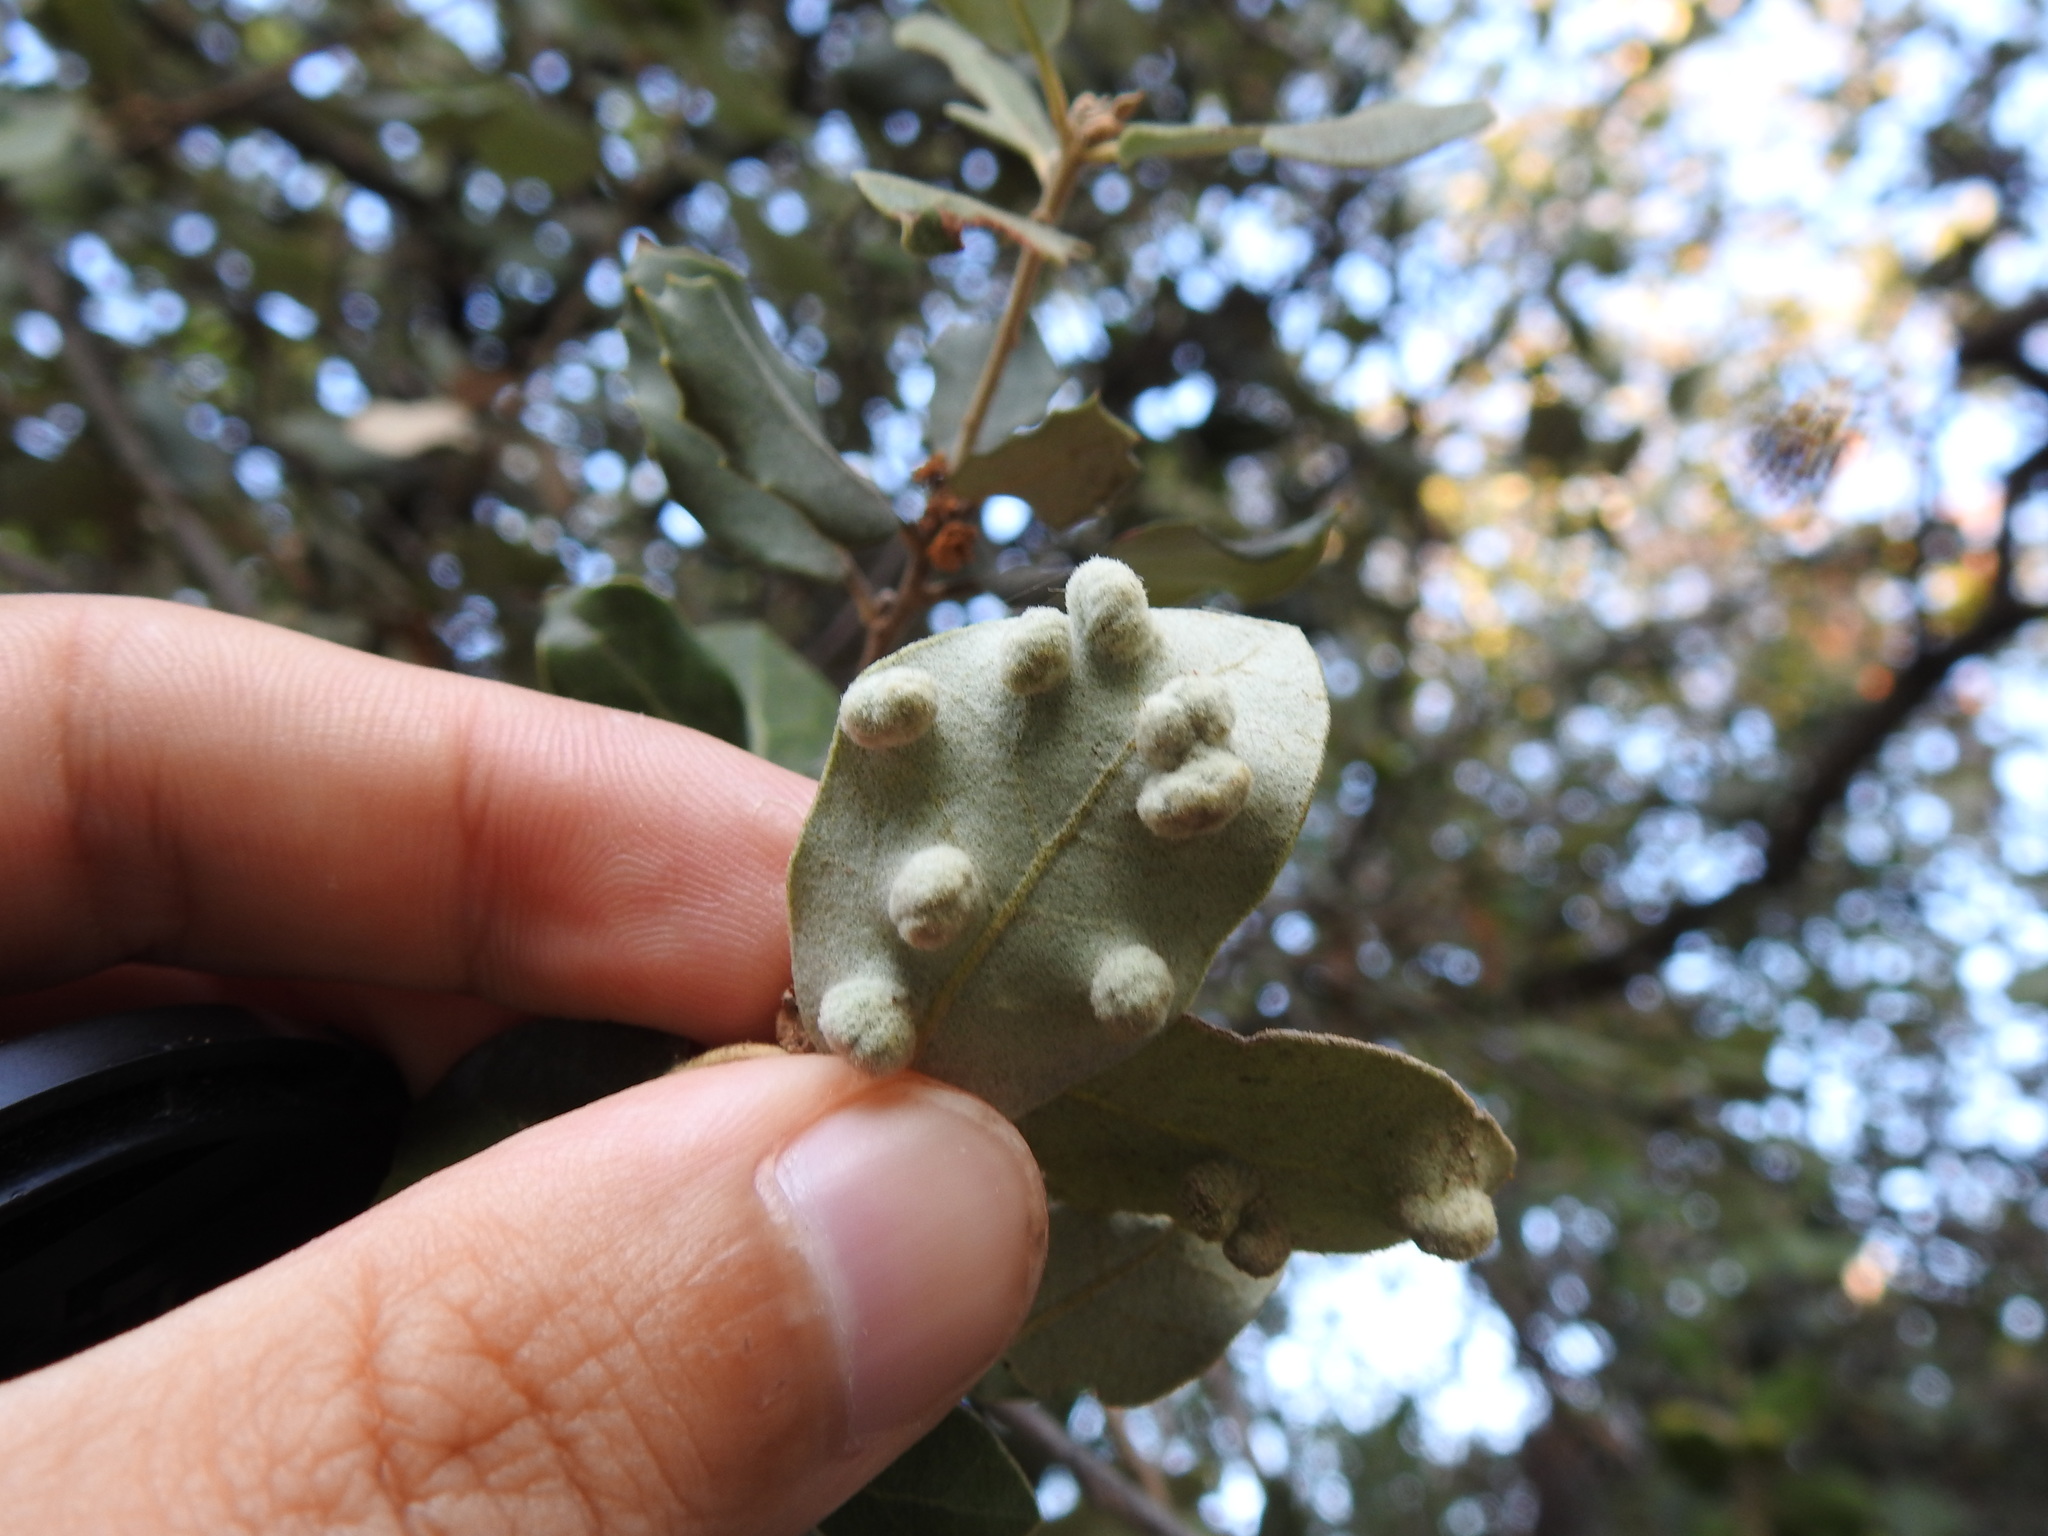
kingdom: Animalia
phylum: Arthropoda
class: Insecta
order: Diptera
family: Cecidomyiidae
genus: Dryomyia
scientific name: Dryomyia lichtensteinii
